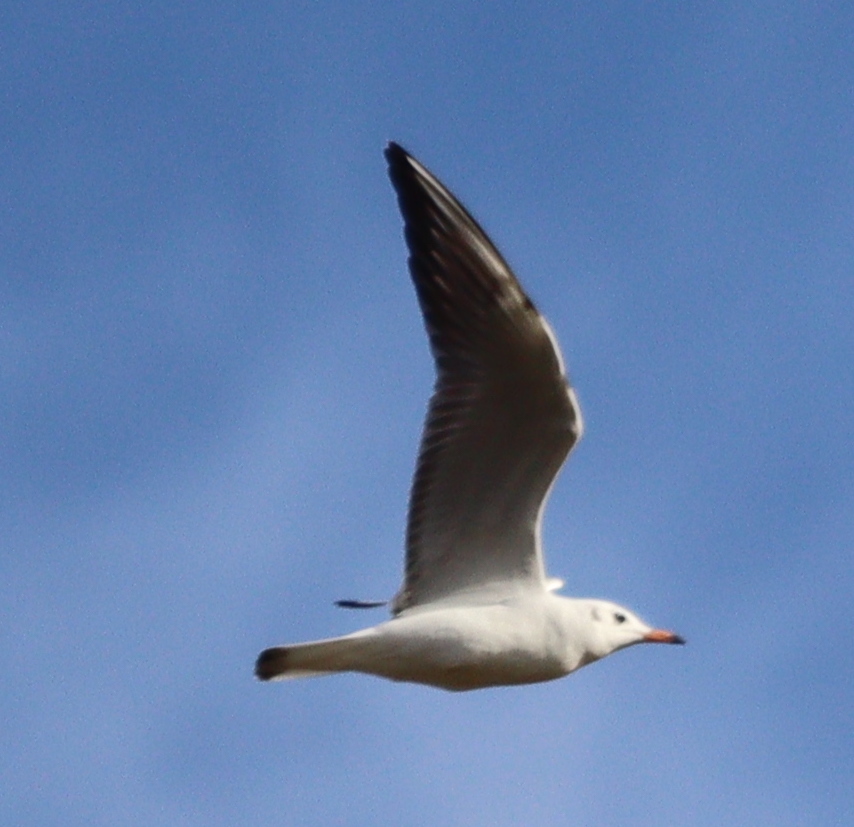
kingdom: Animalia
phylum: Chordata
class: Aves
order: Charadriiformes
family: Laridae
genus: Chroicocephalus
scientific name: Chroicocephalus ridibundus
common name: Black-headed gull
